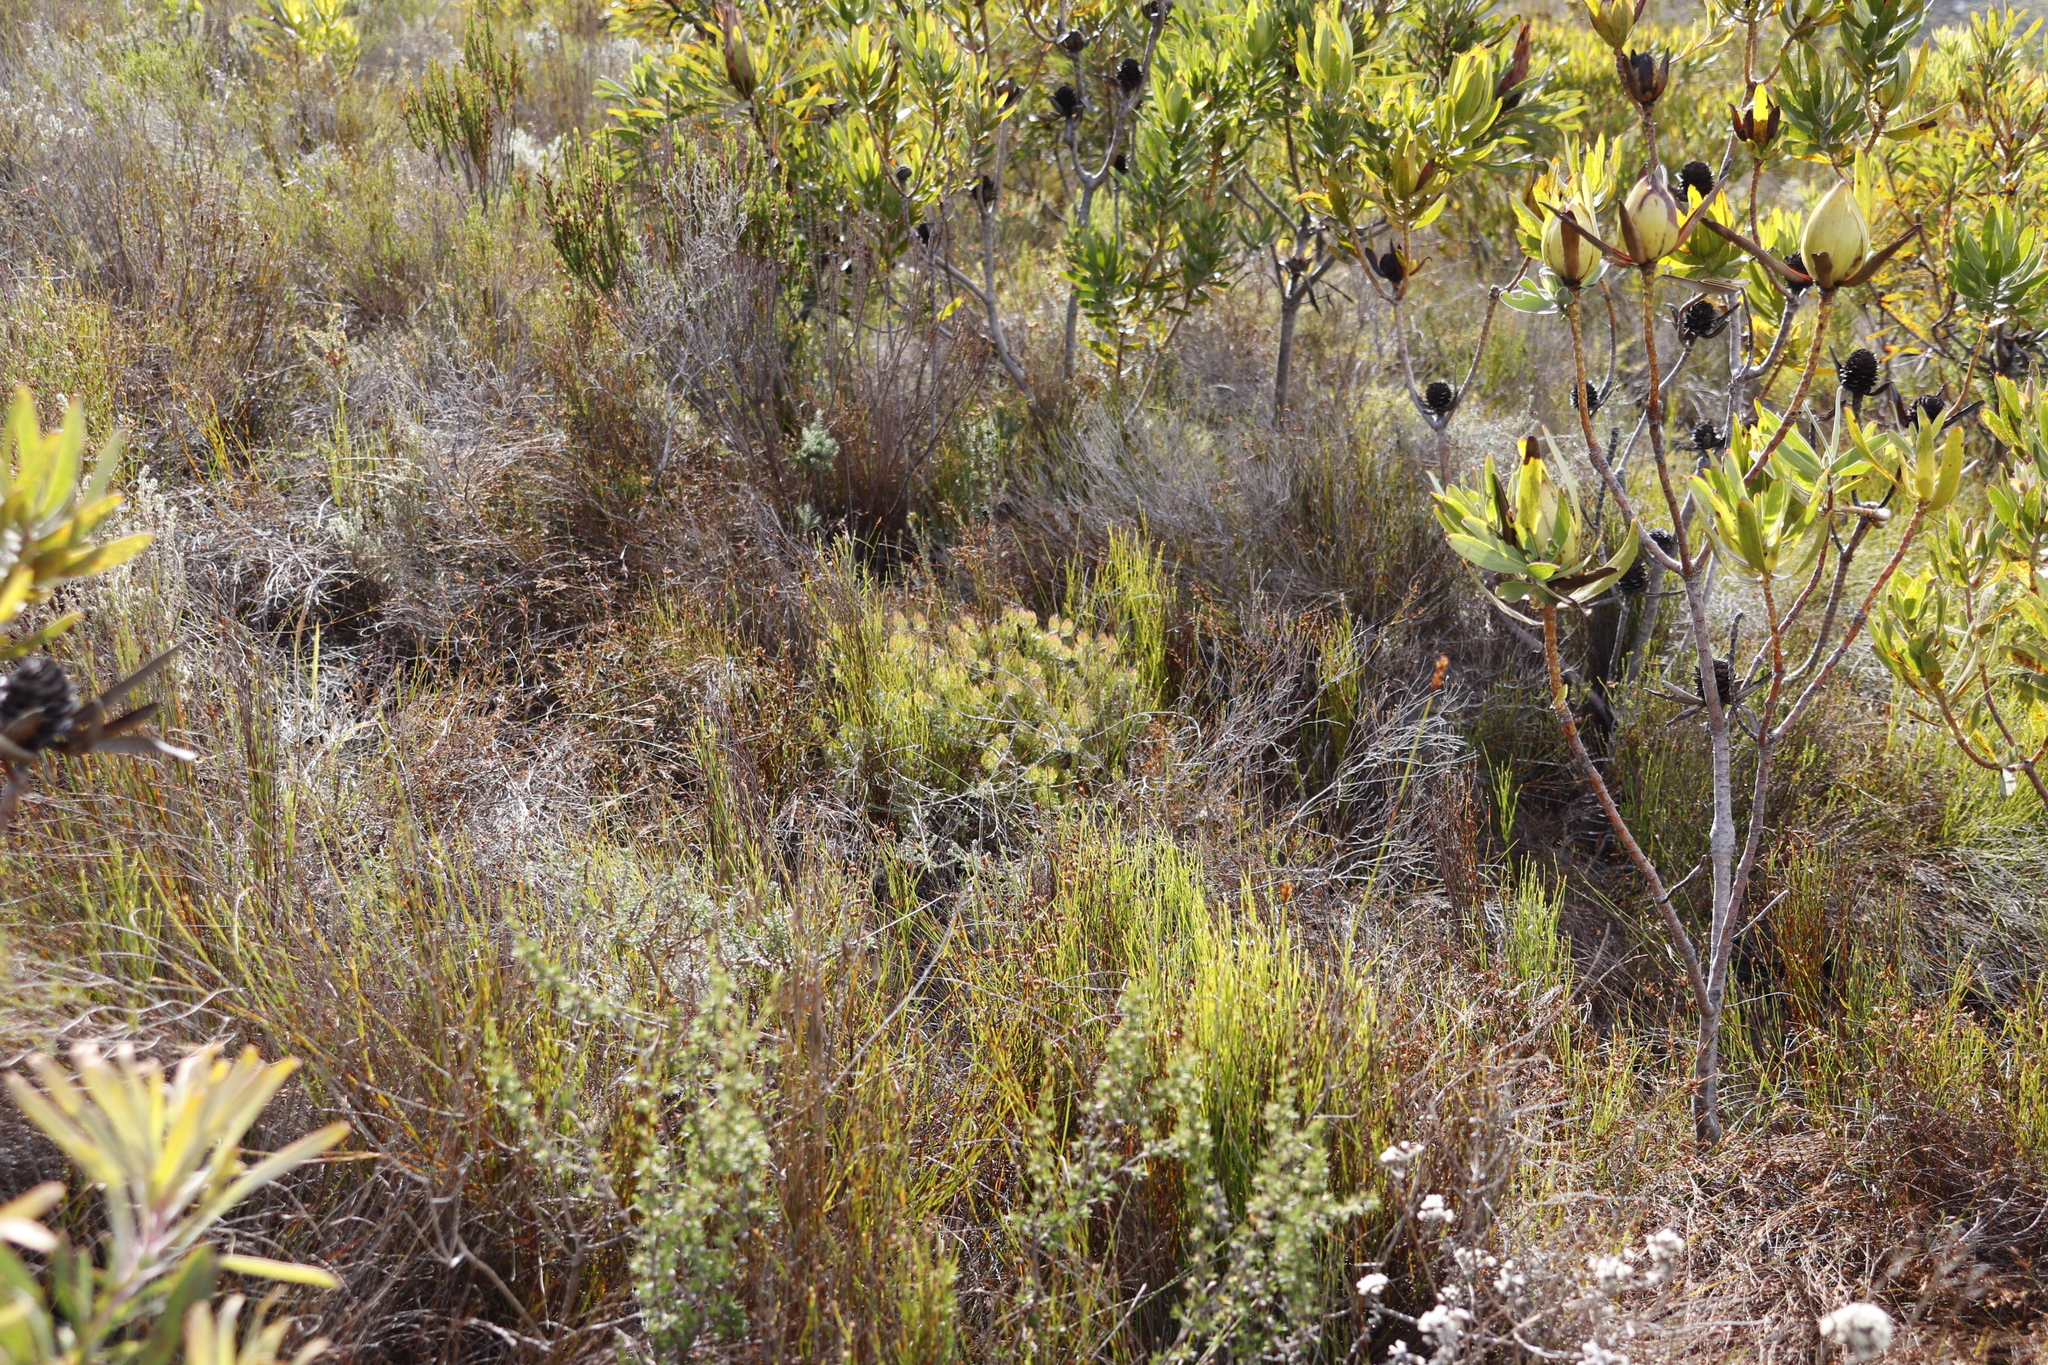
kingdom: Plantae
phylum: Tracheophyta
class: Magnoliopsida
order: Proteales
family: Proteaceae
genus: Serruria
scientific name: Serruria inconspicua
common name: Cryptic spiderhead
